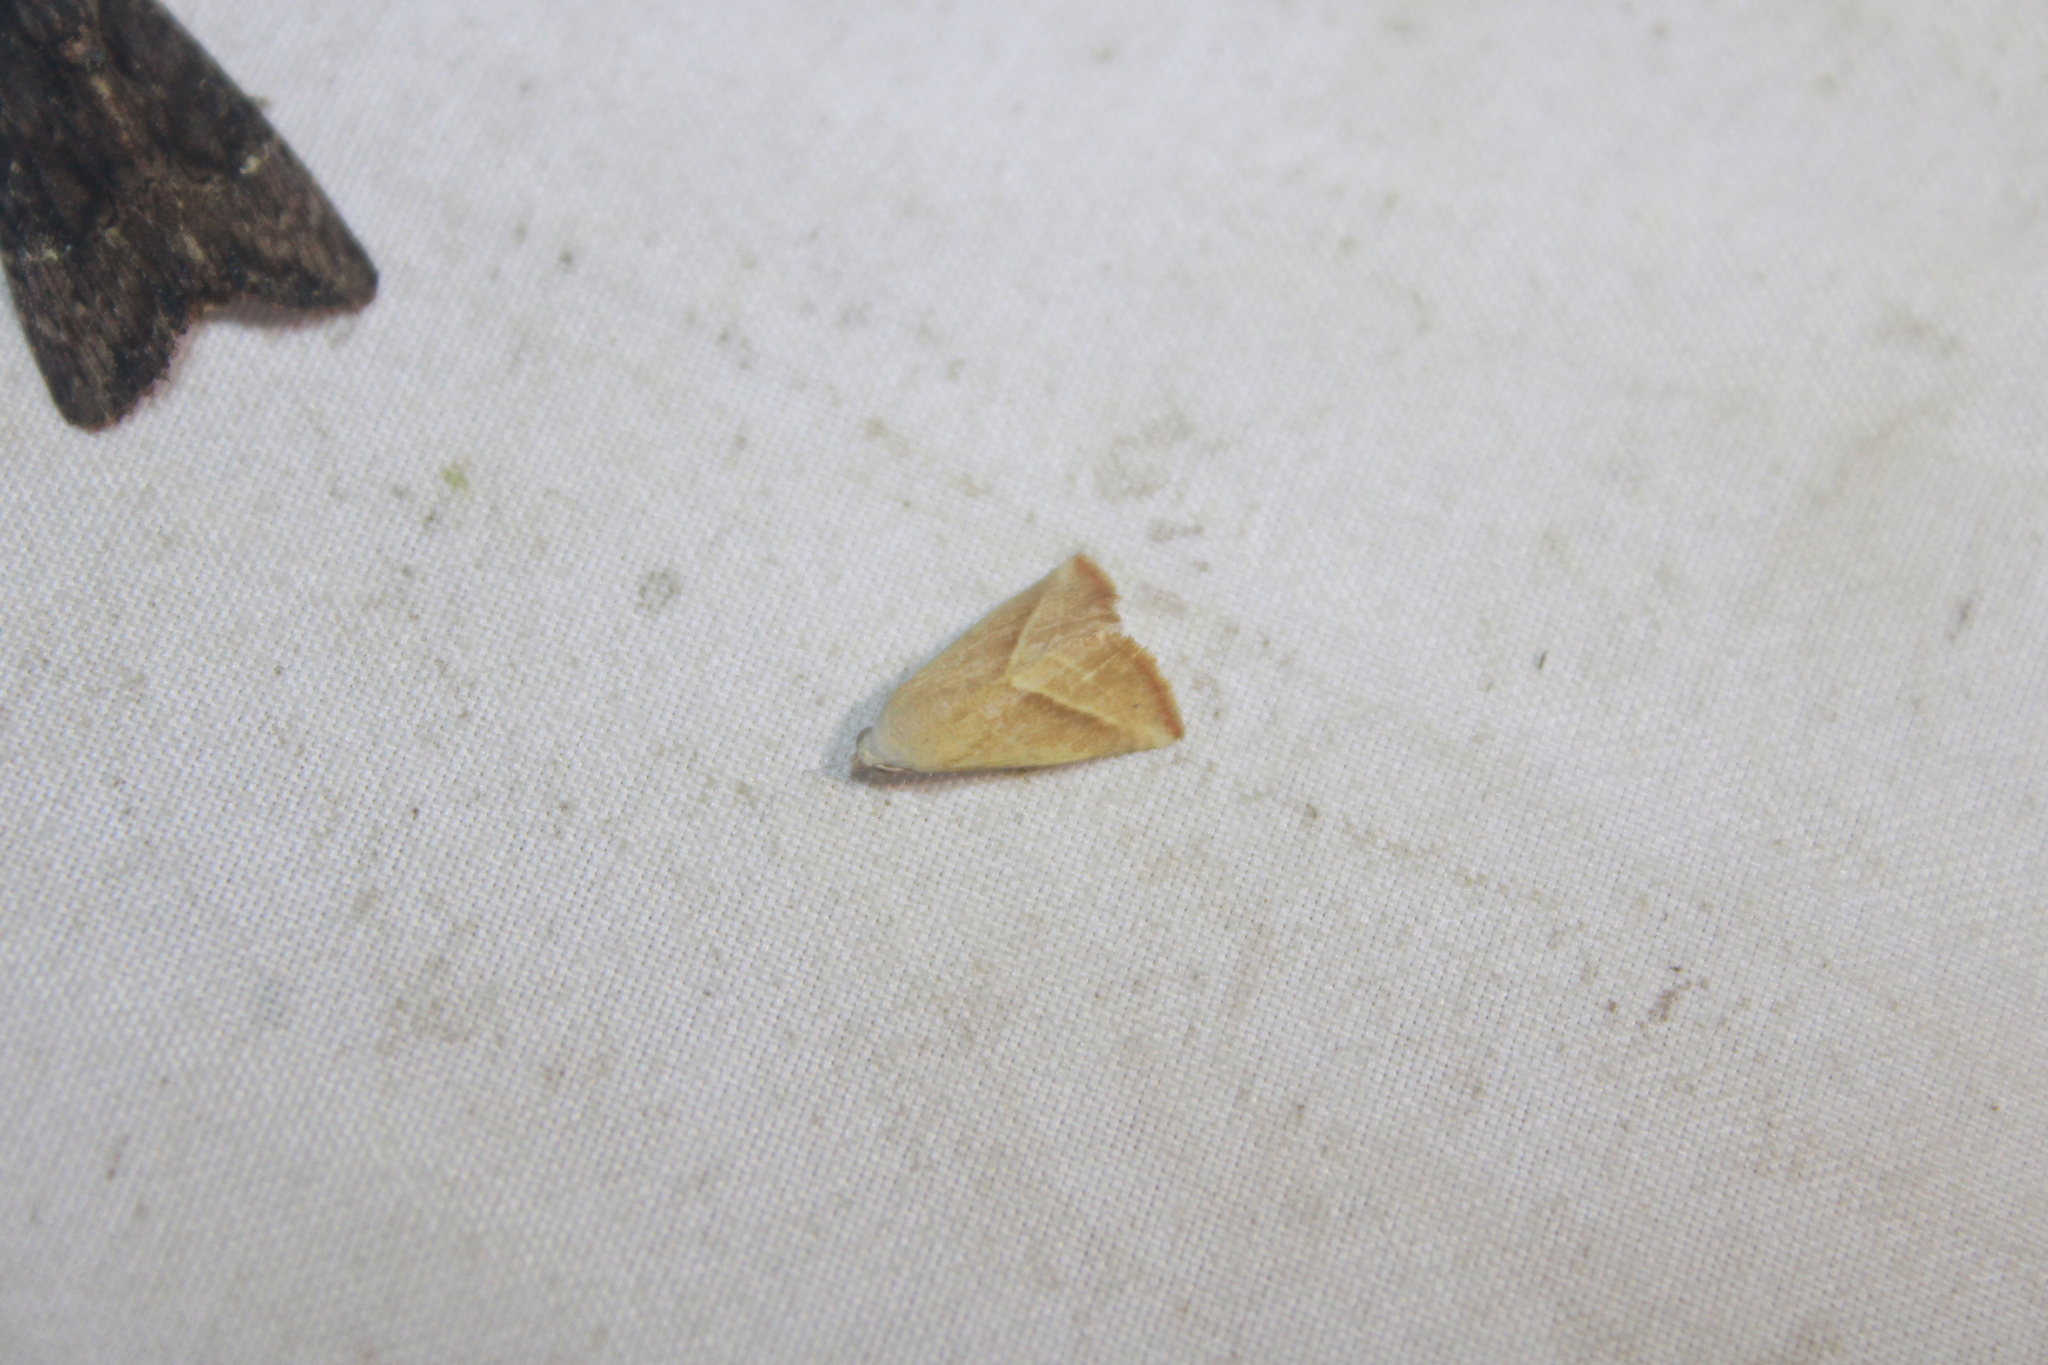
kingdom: Animalia
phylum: Arthropoda
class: Insecta
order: Lepidoptera
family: Noctuidae
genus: Eublemma
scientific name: Eublemma recta
